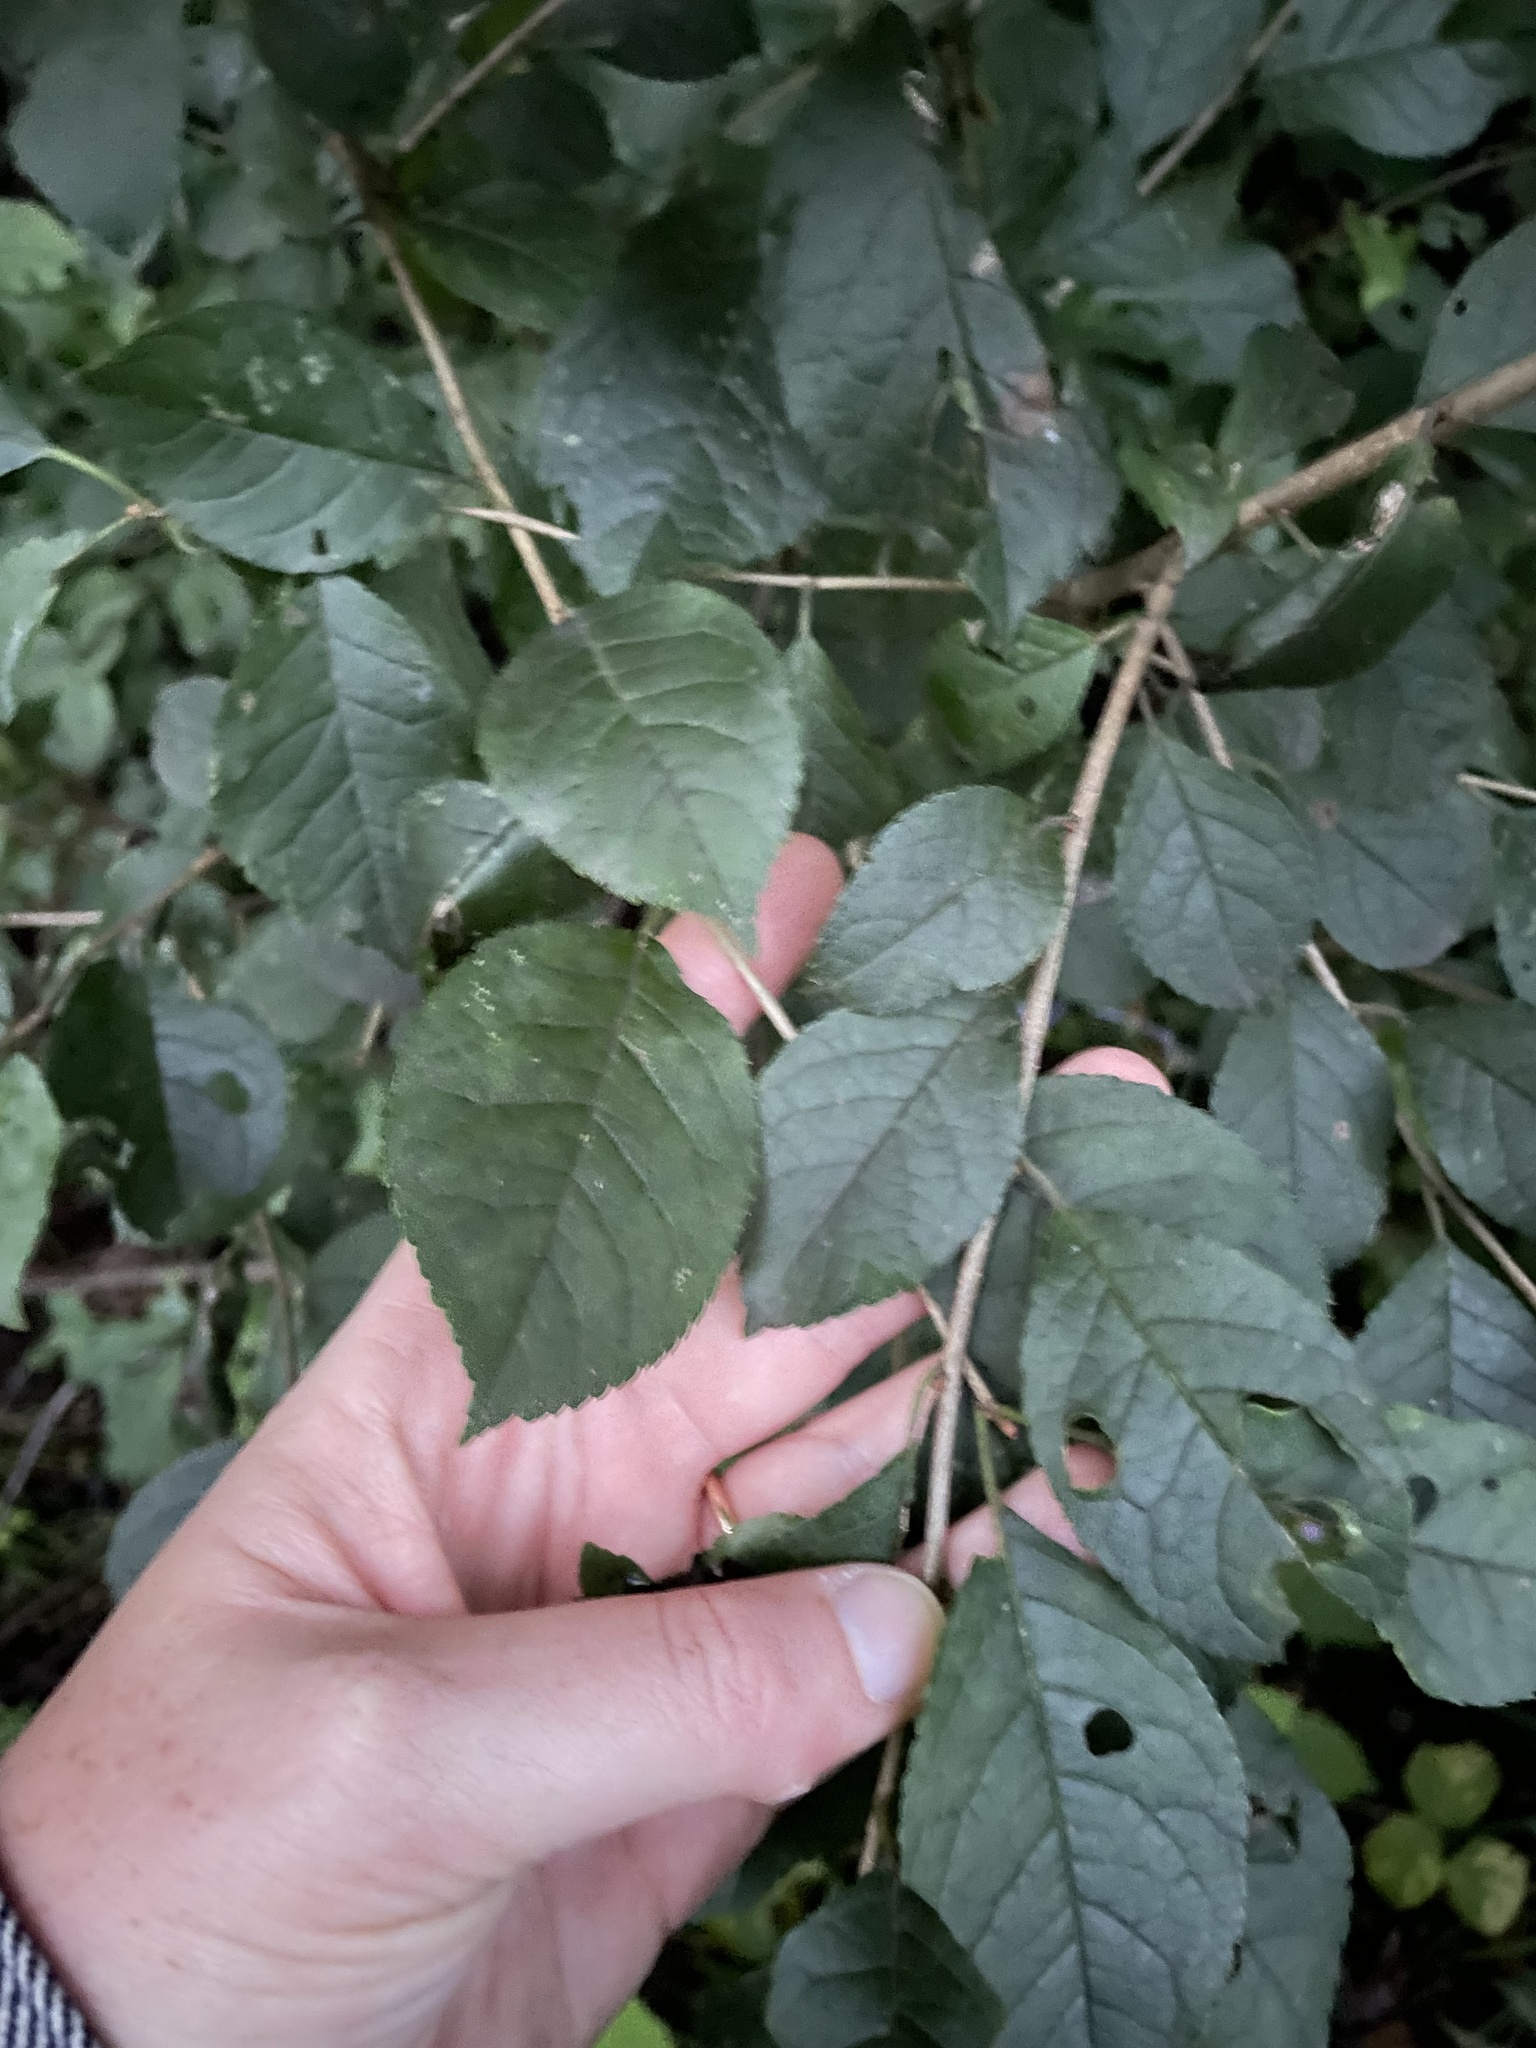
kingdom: Plantae
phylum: Tracheophyta
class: Magnoliopsida
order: Aquifoliales
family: Aquifoliaceae
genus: Ilex
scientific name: Ilex verticillata
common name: Virginia winterberry
